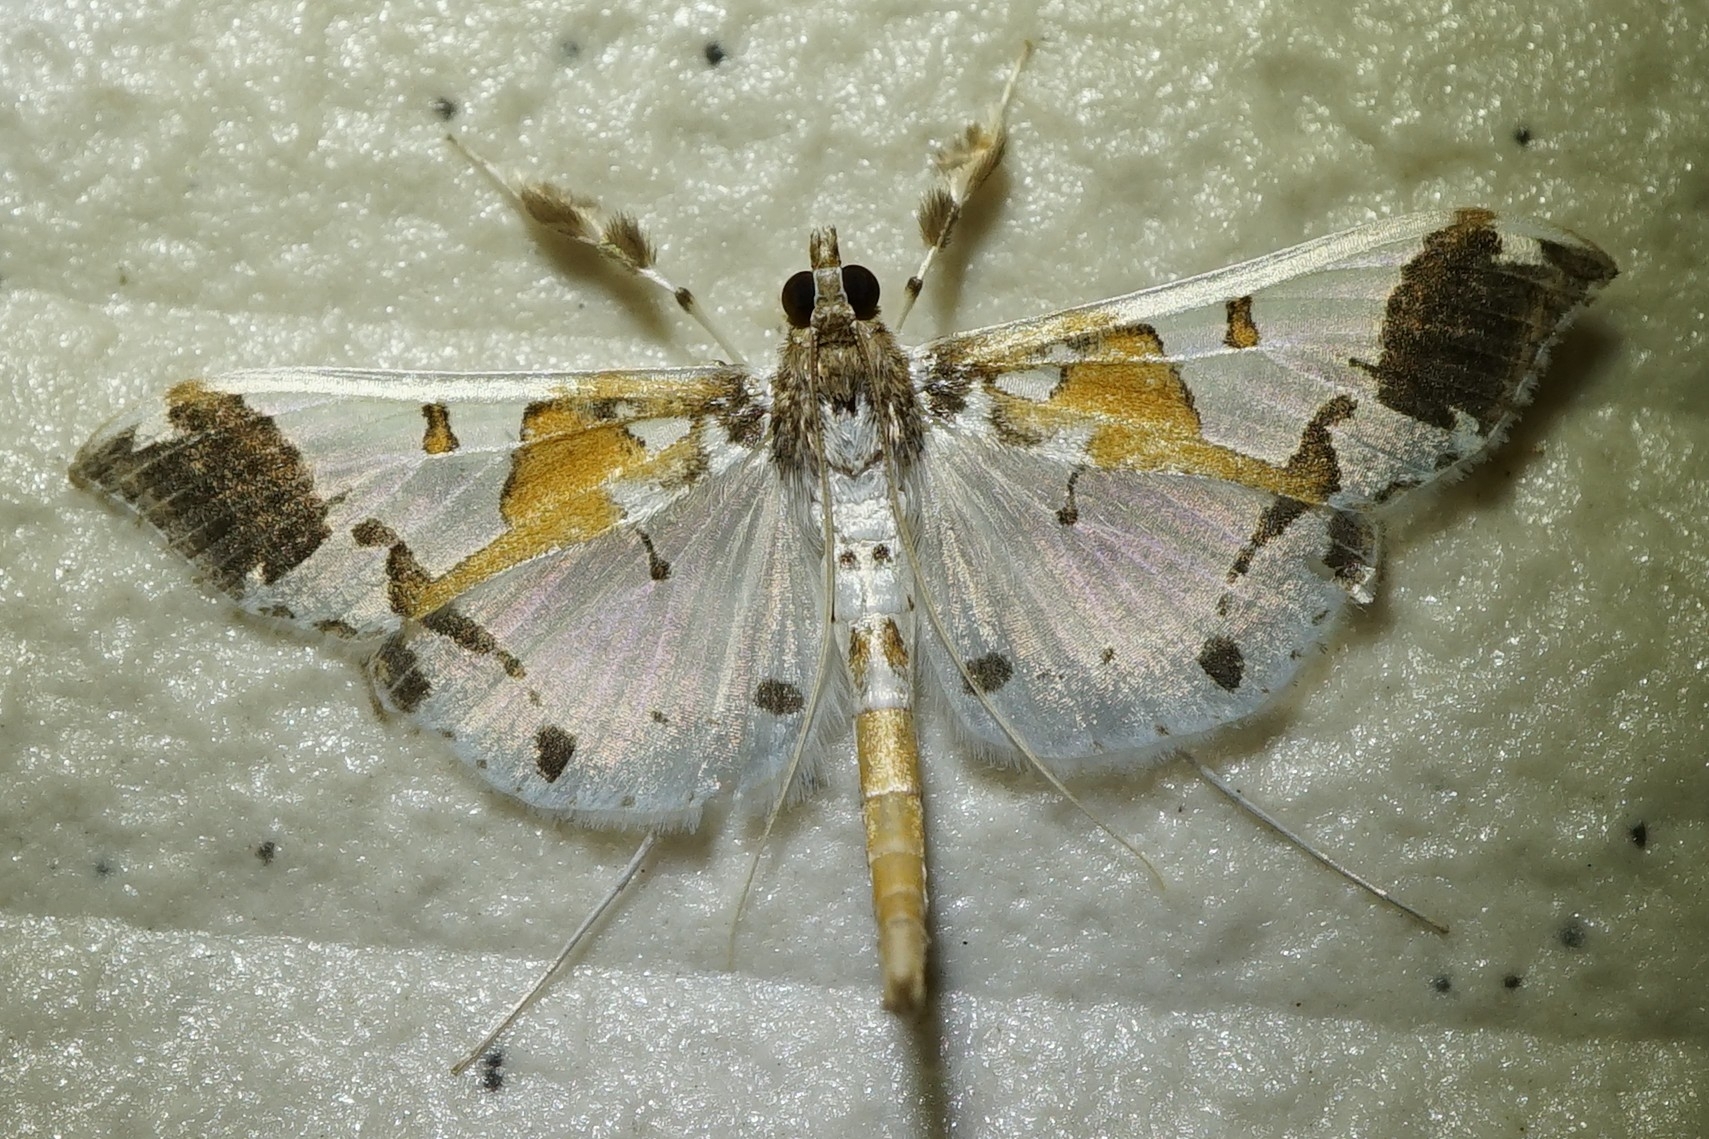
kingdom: Animalia
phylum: Arthropoda
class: Insecta
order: Lepidoptera
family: Crambidae
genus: Polythlipta
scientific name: Polythlipta liquidalis
